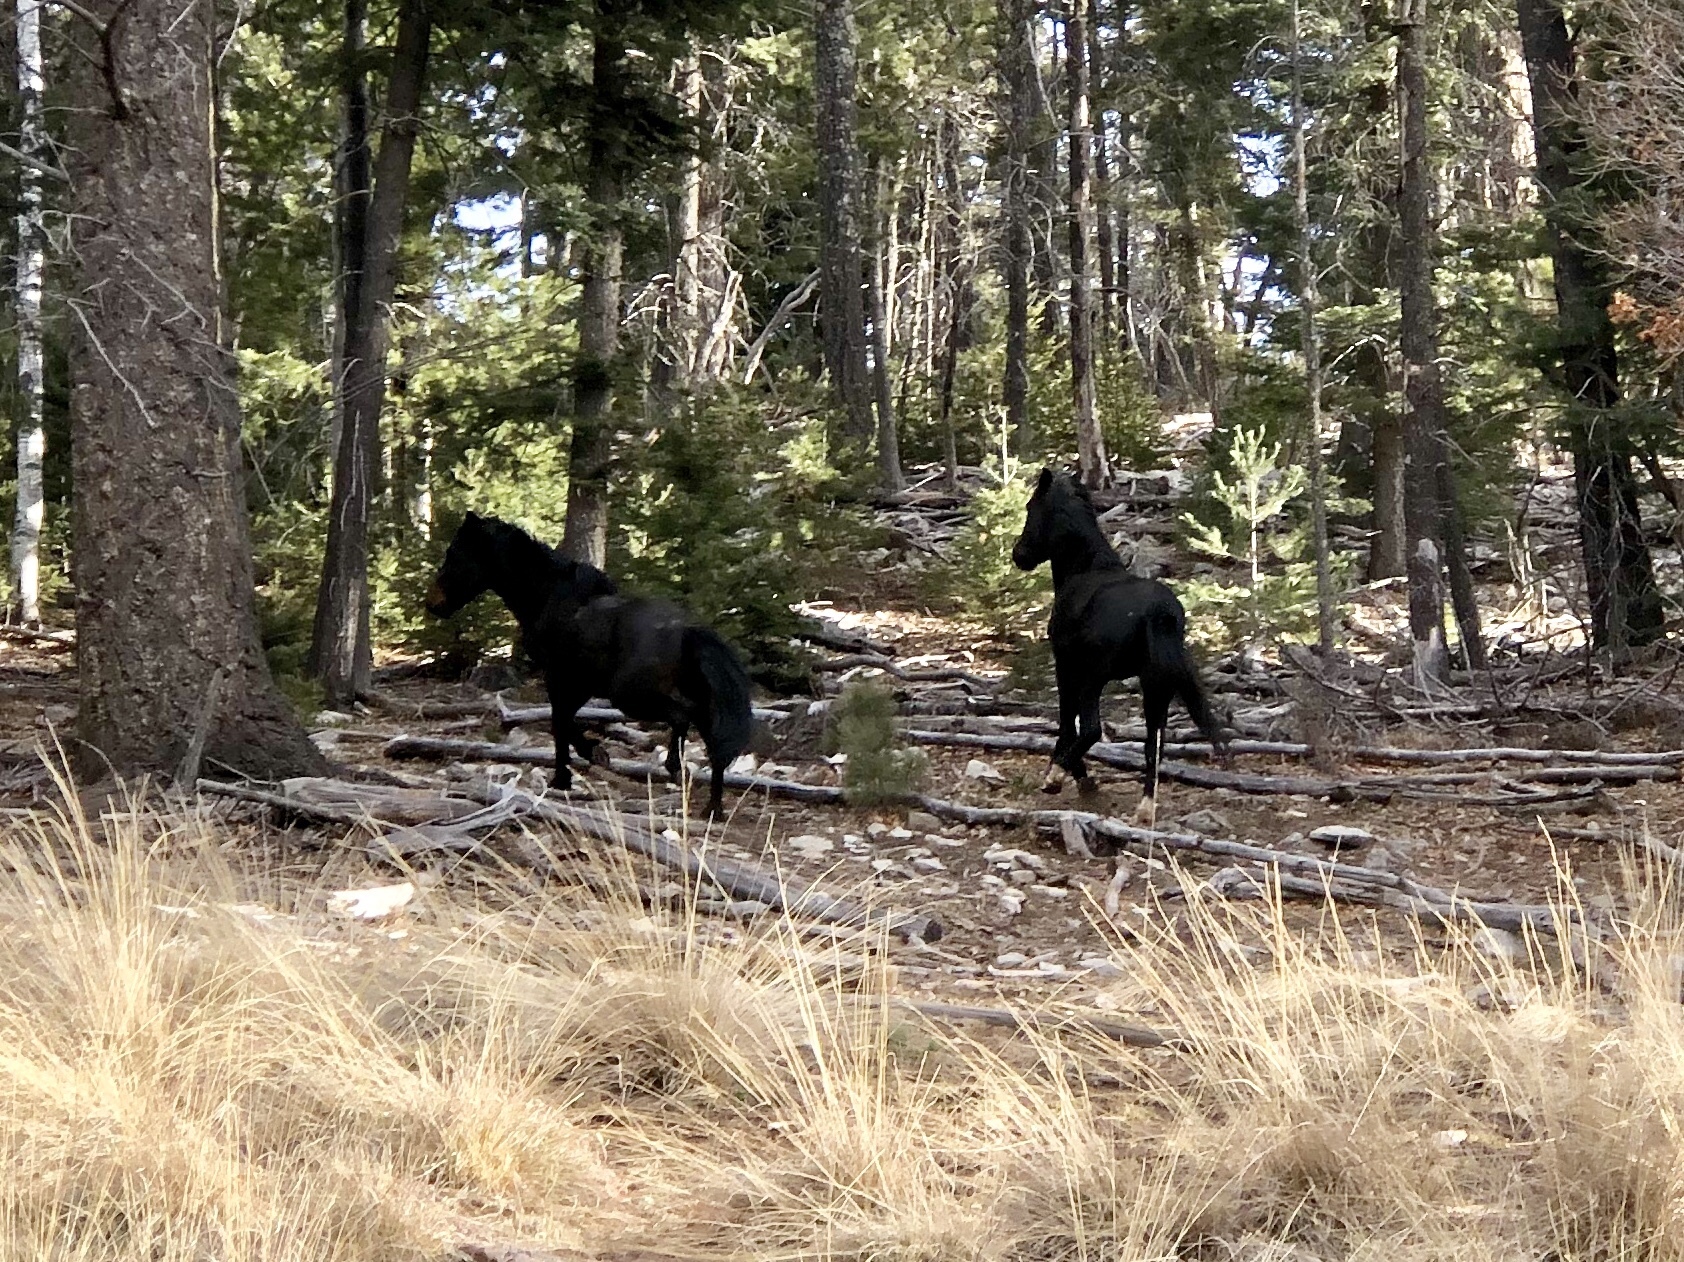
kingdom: Animalia
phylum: Chordata
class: Mammalia
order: Perissodactyla
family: Equidae
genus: Equus
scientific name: Equus caballus
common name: Horse
